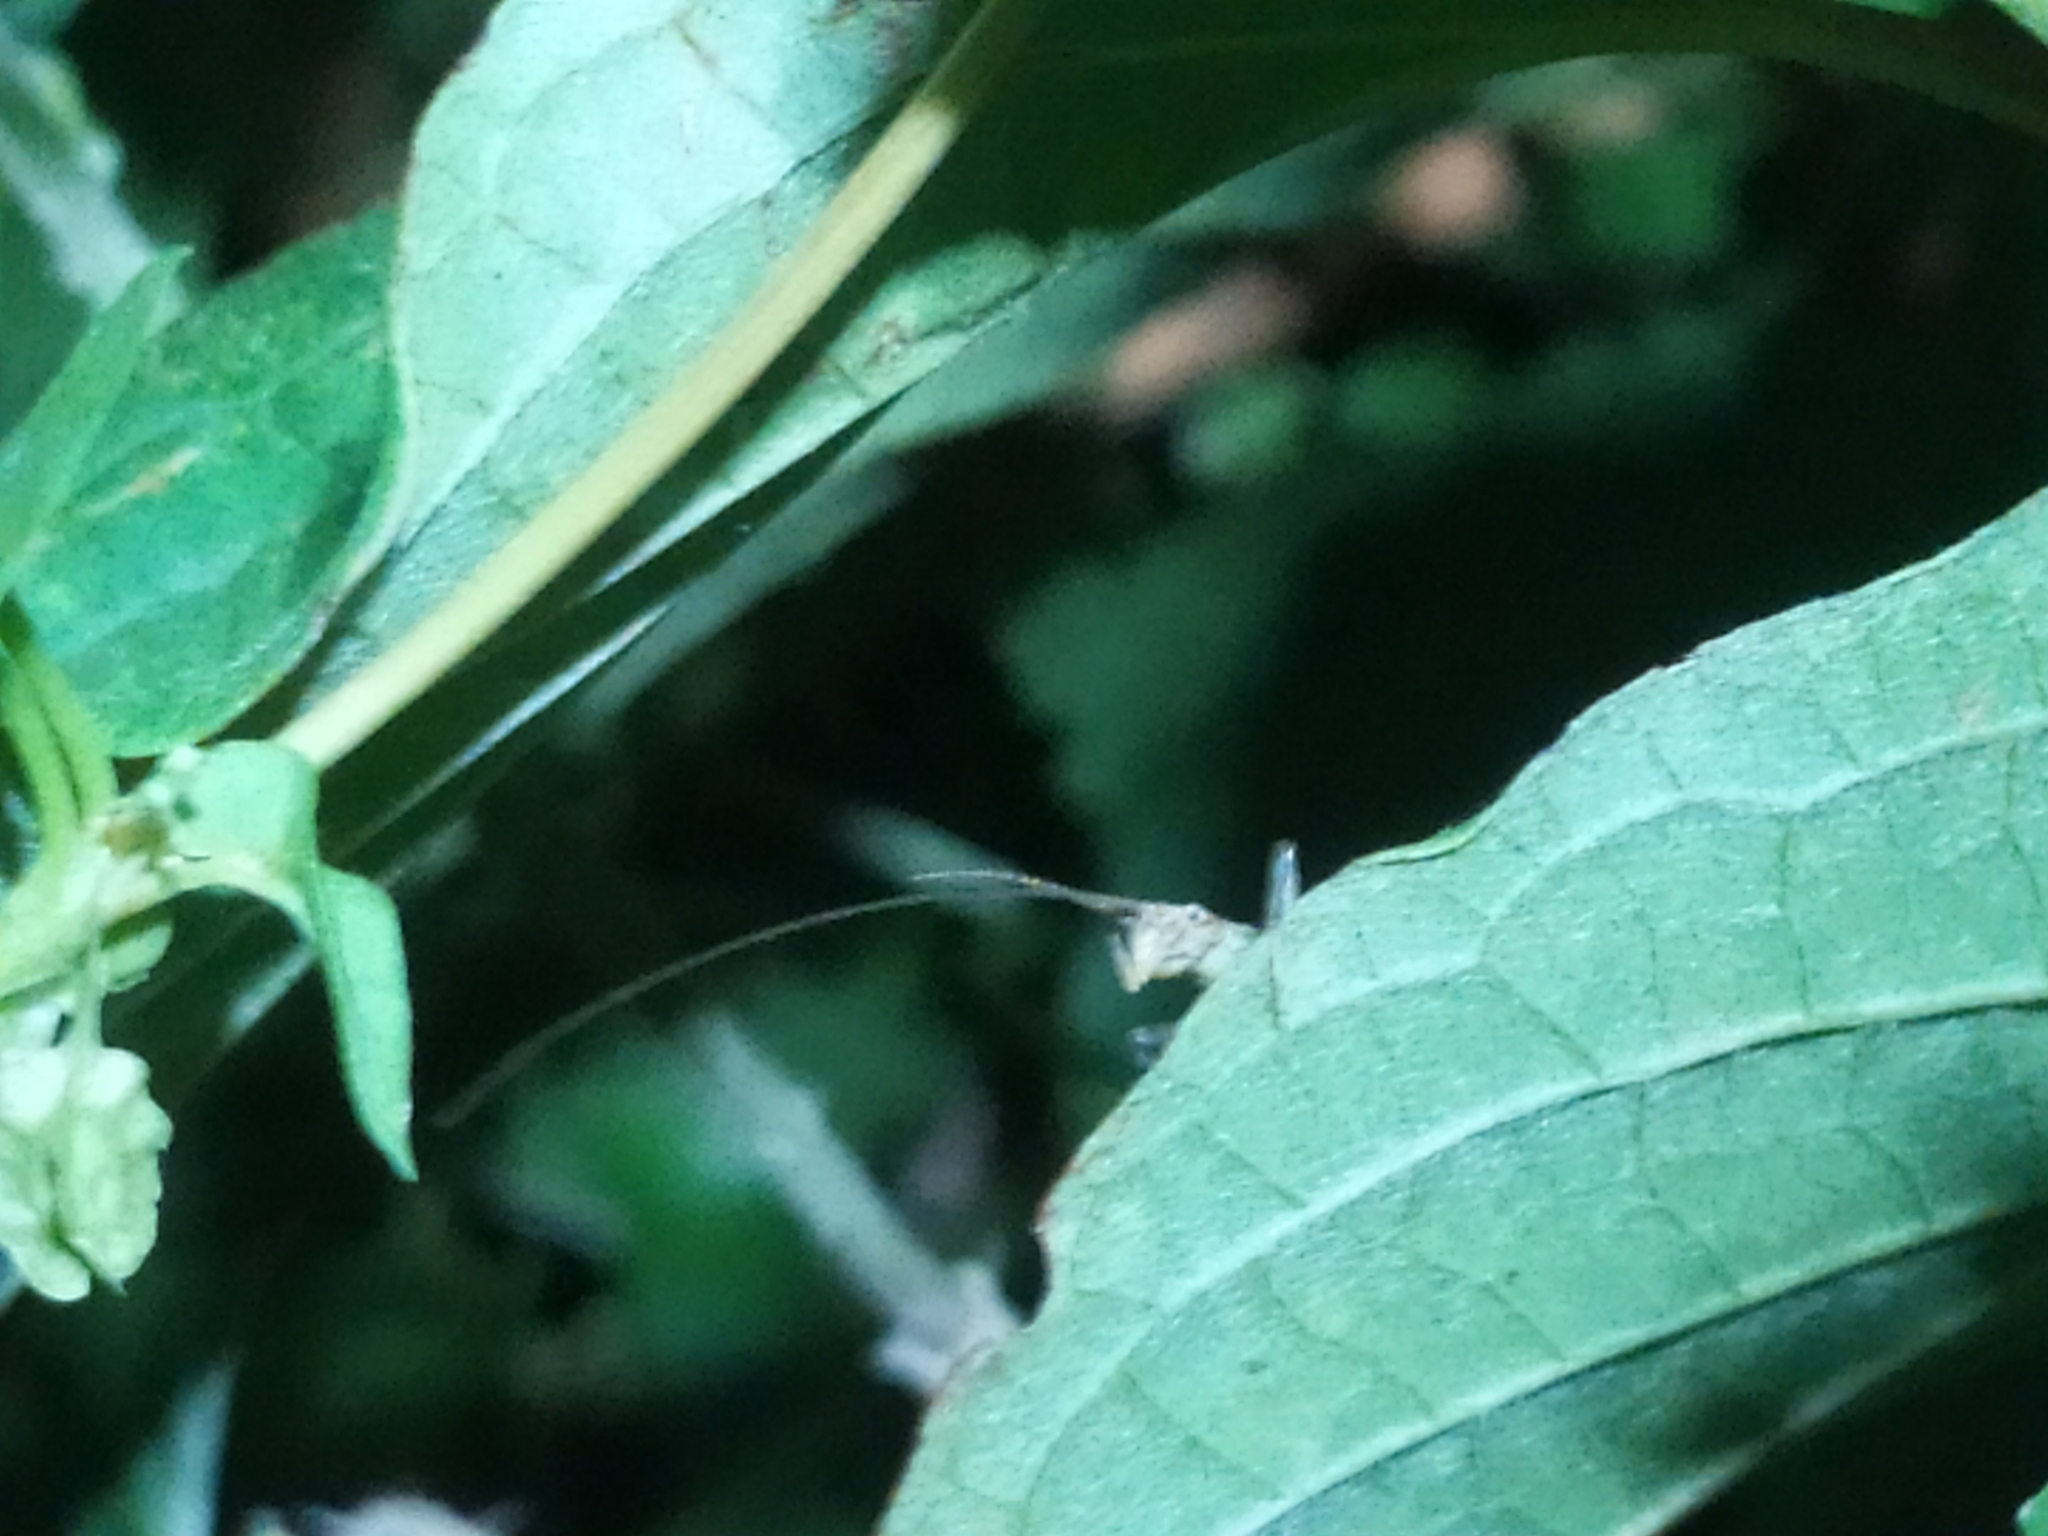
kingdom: Animalia
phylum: Arthropoda
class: Insecta
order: Orthoptera
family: Gryllidae
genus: Oecanthus
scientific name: Oecanthus pellucens
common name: Tree-cricket
